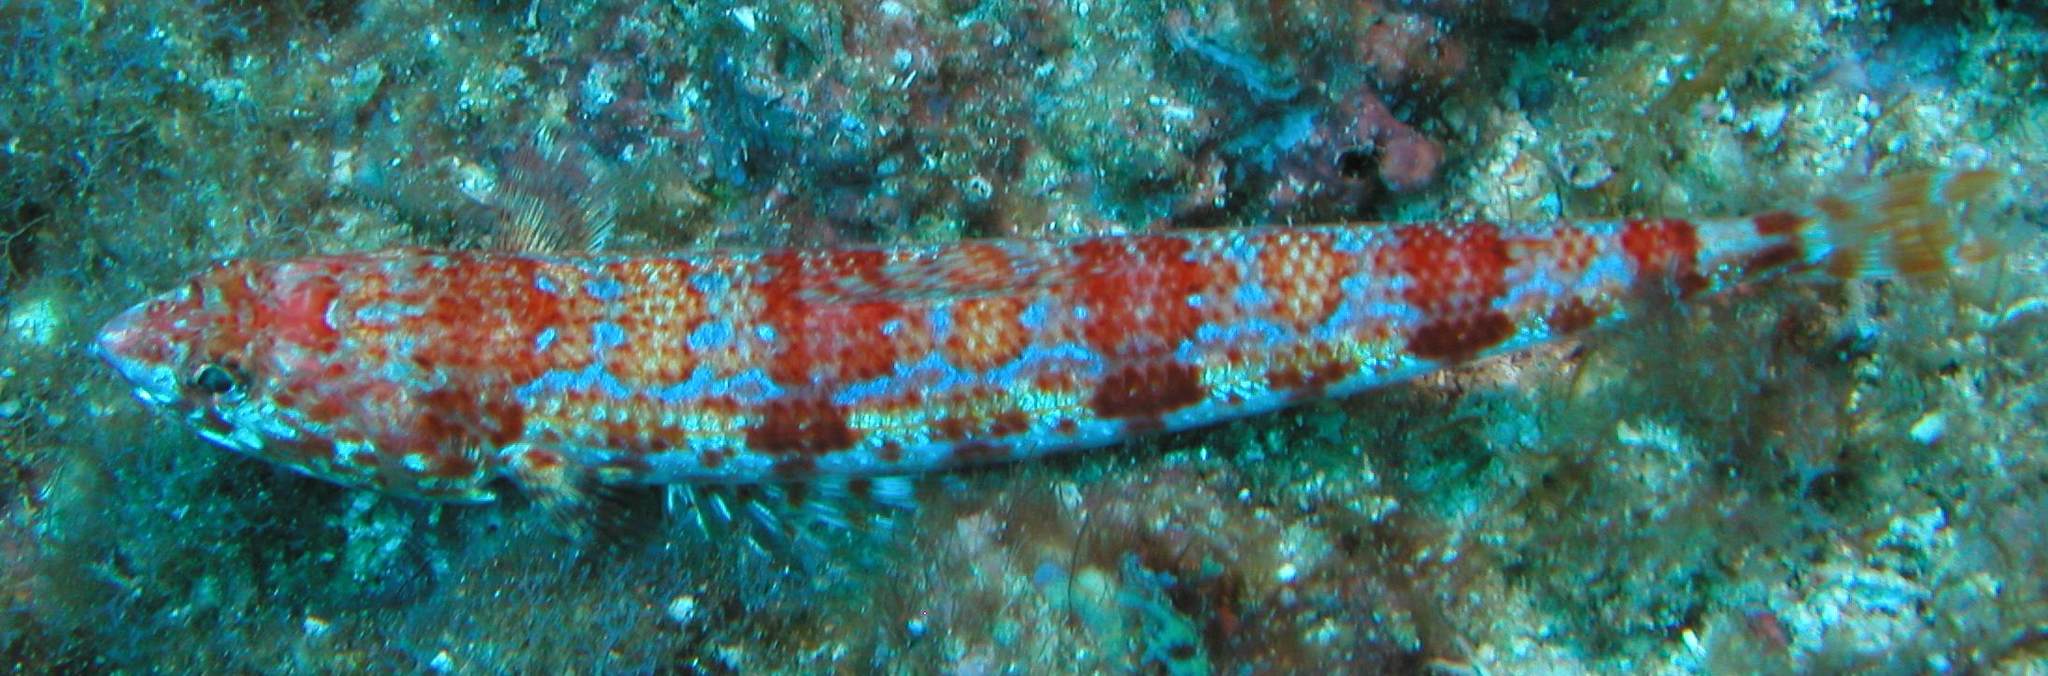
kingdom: Animalia
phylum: Chordata
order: Aulopiformes
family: Synodontidae
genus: Synodus
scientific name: Synodus lacertinus
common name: Calico lizardfish
